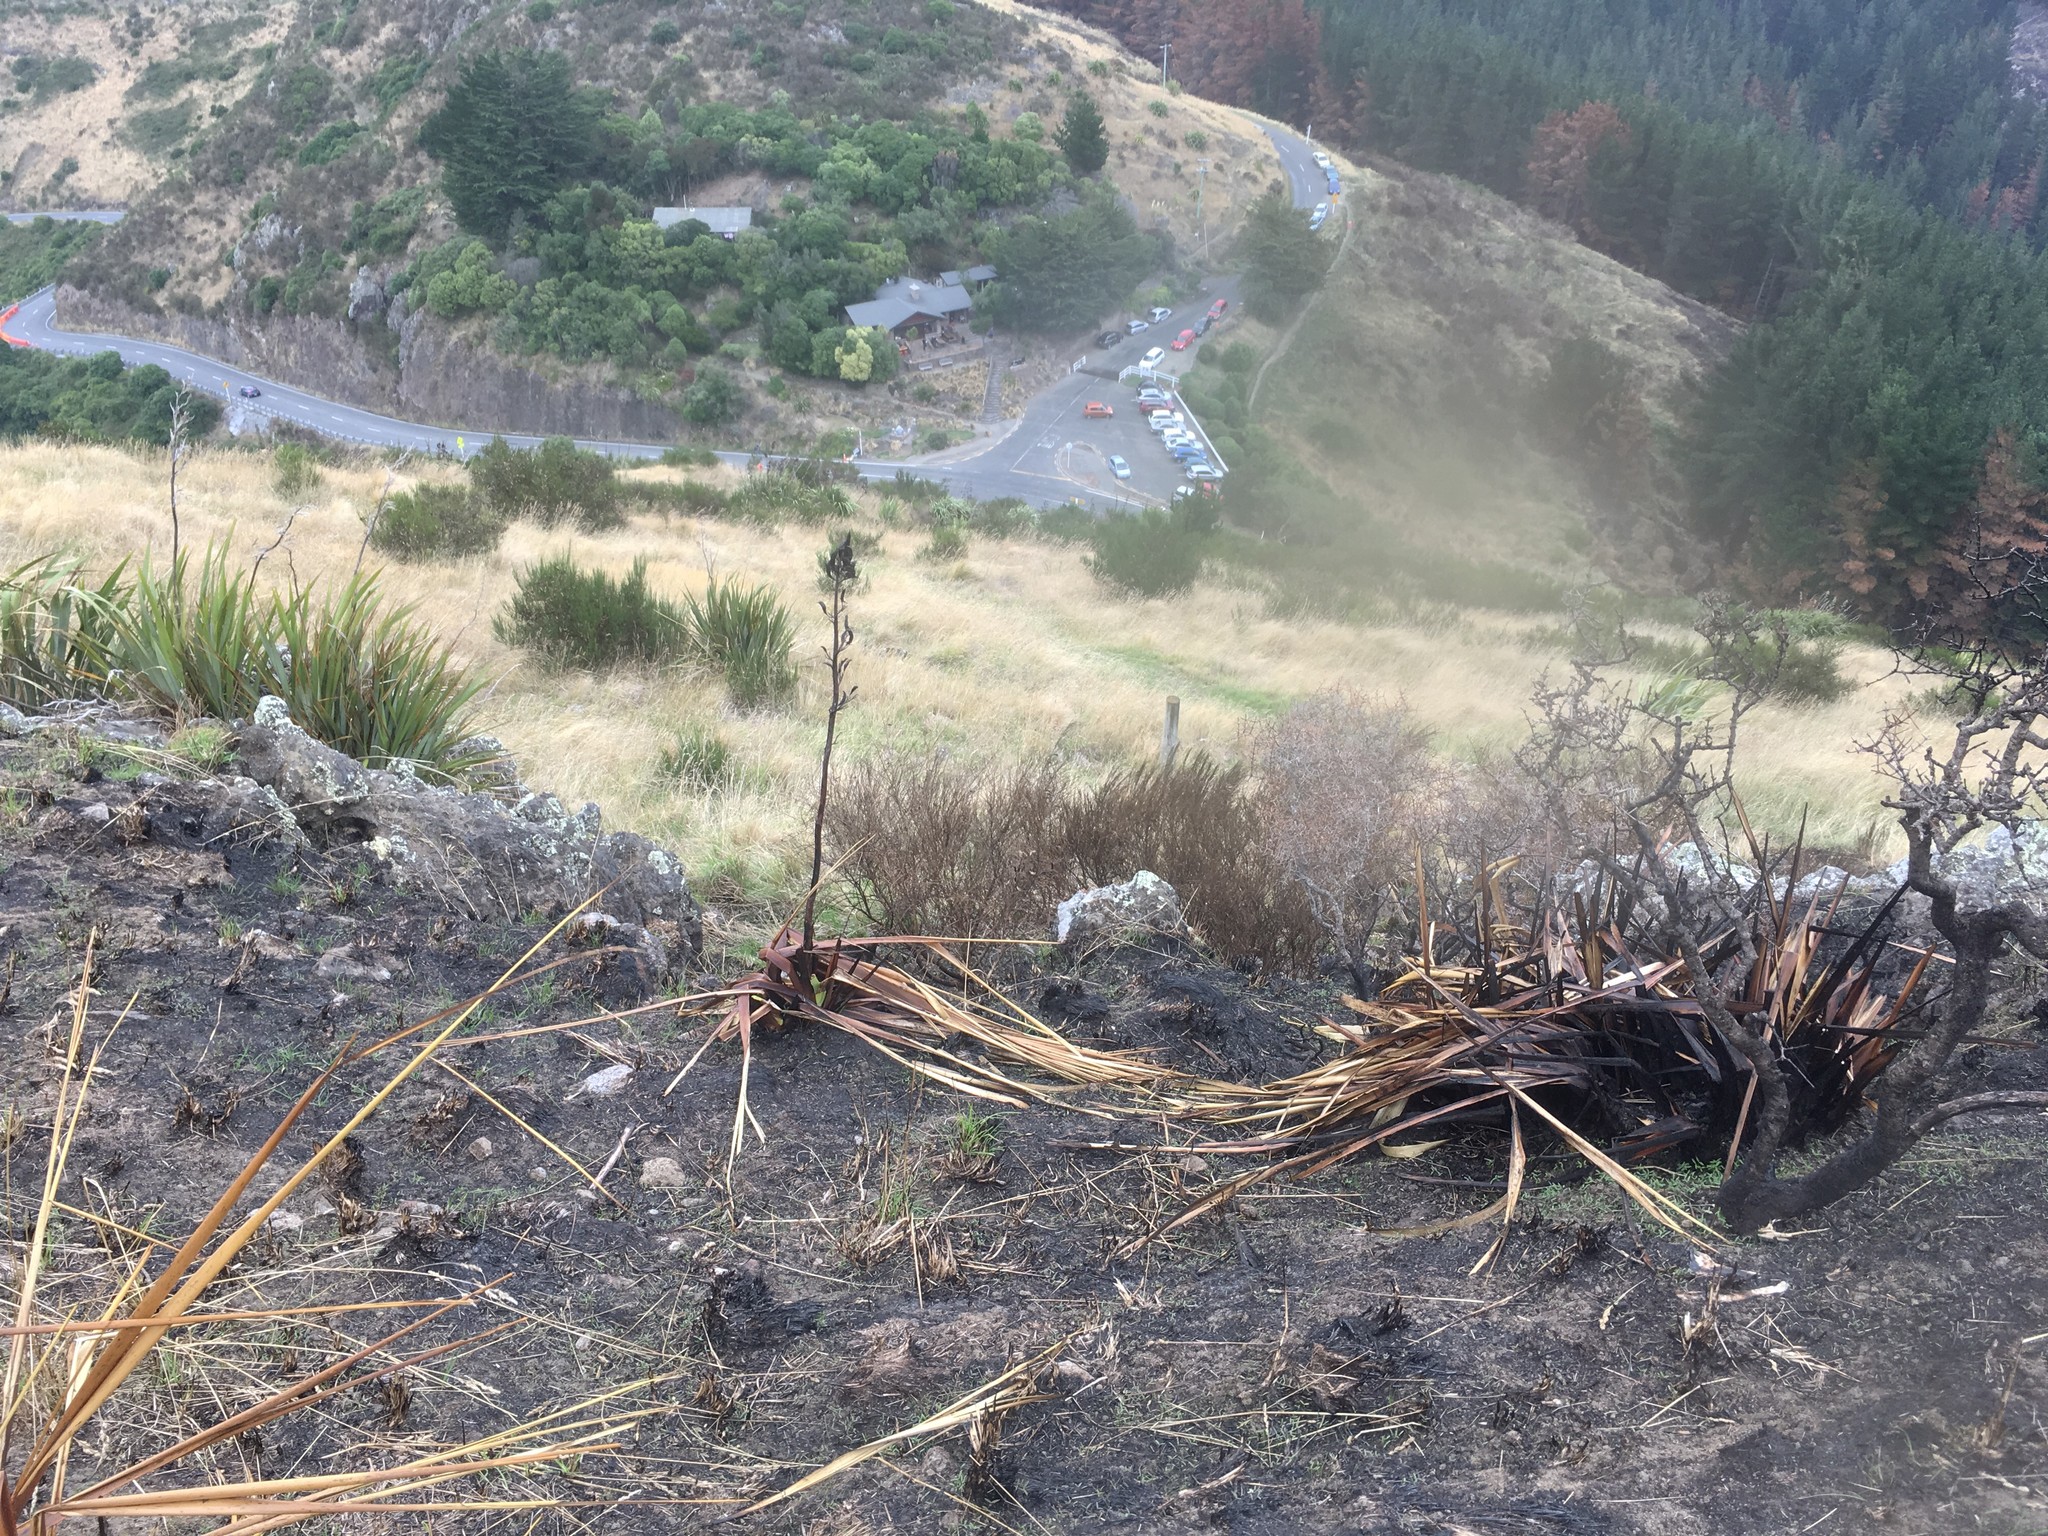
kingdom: Plantae
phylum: Tracheophyta
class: Liliopsida
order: Asparagales
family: Asphodelaceae
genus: Phormium
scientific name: Phormium tenax
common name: New zealand flax
